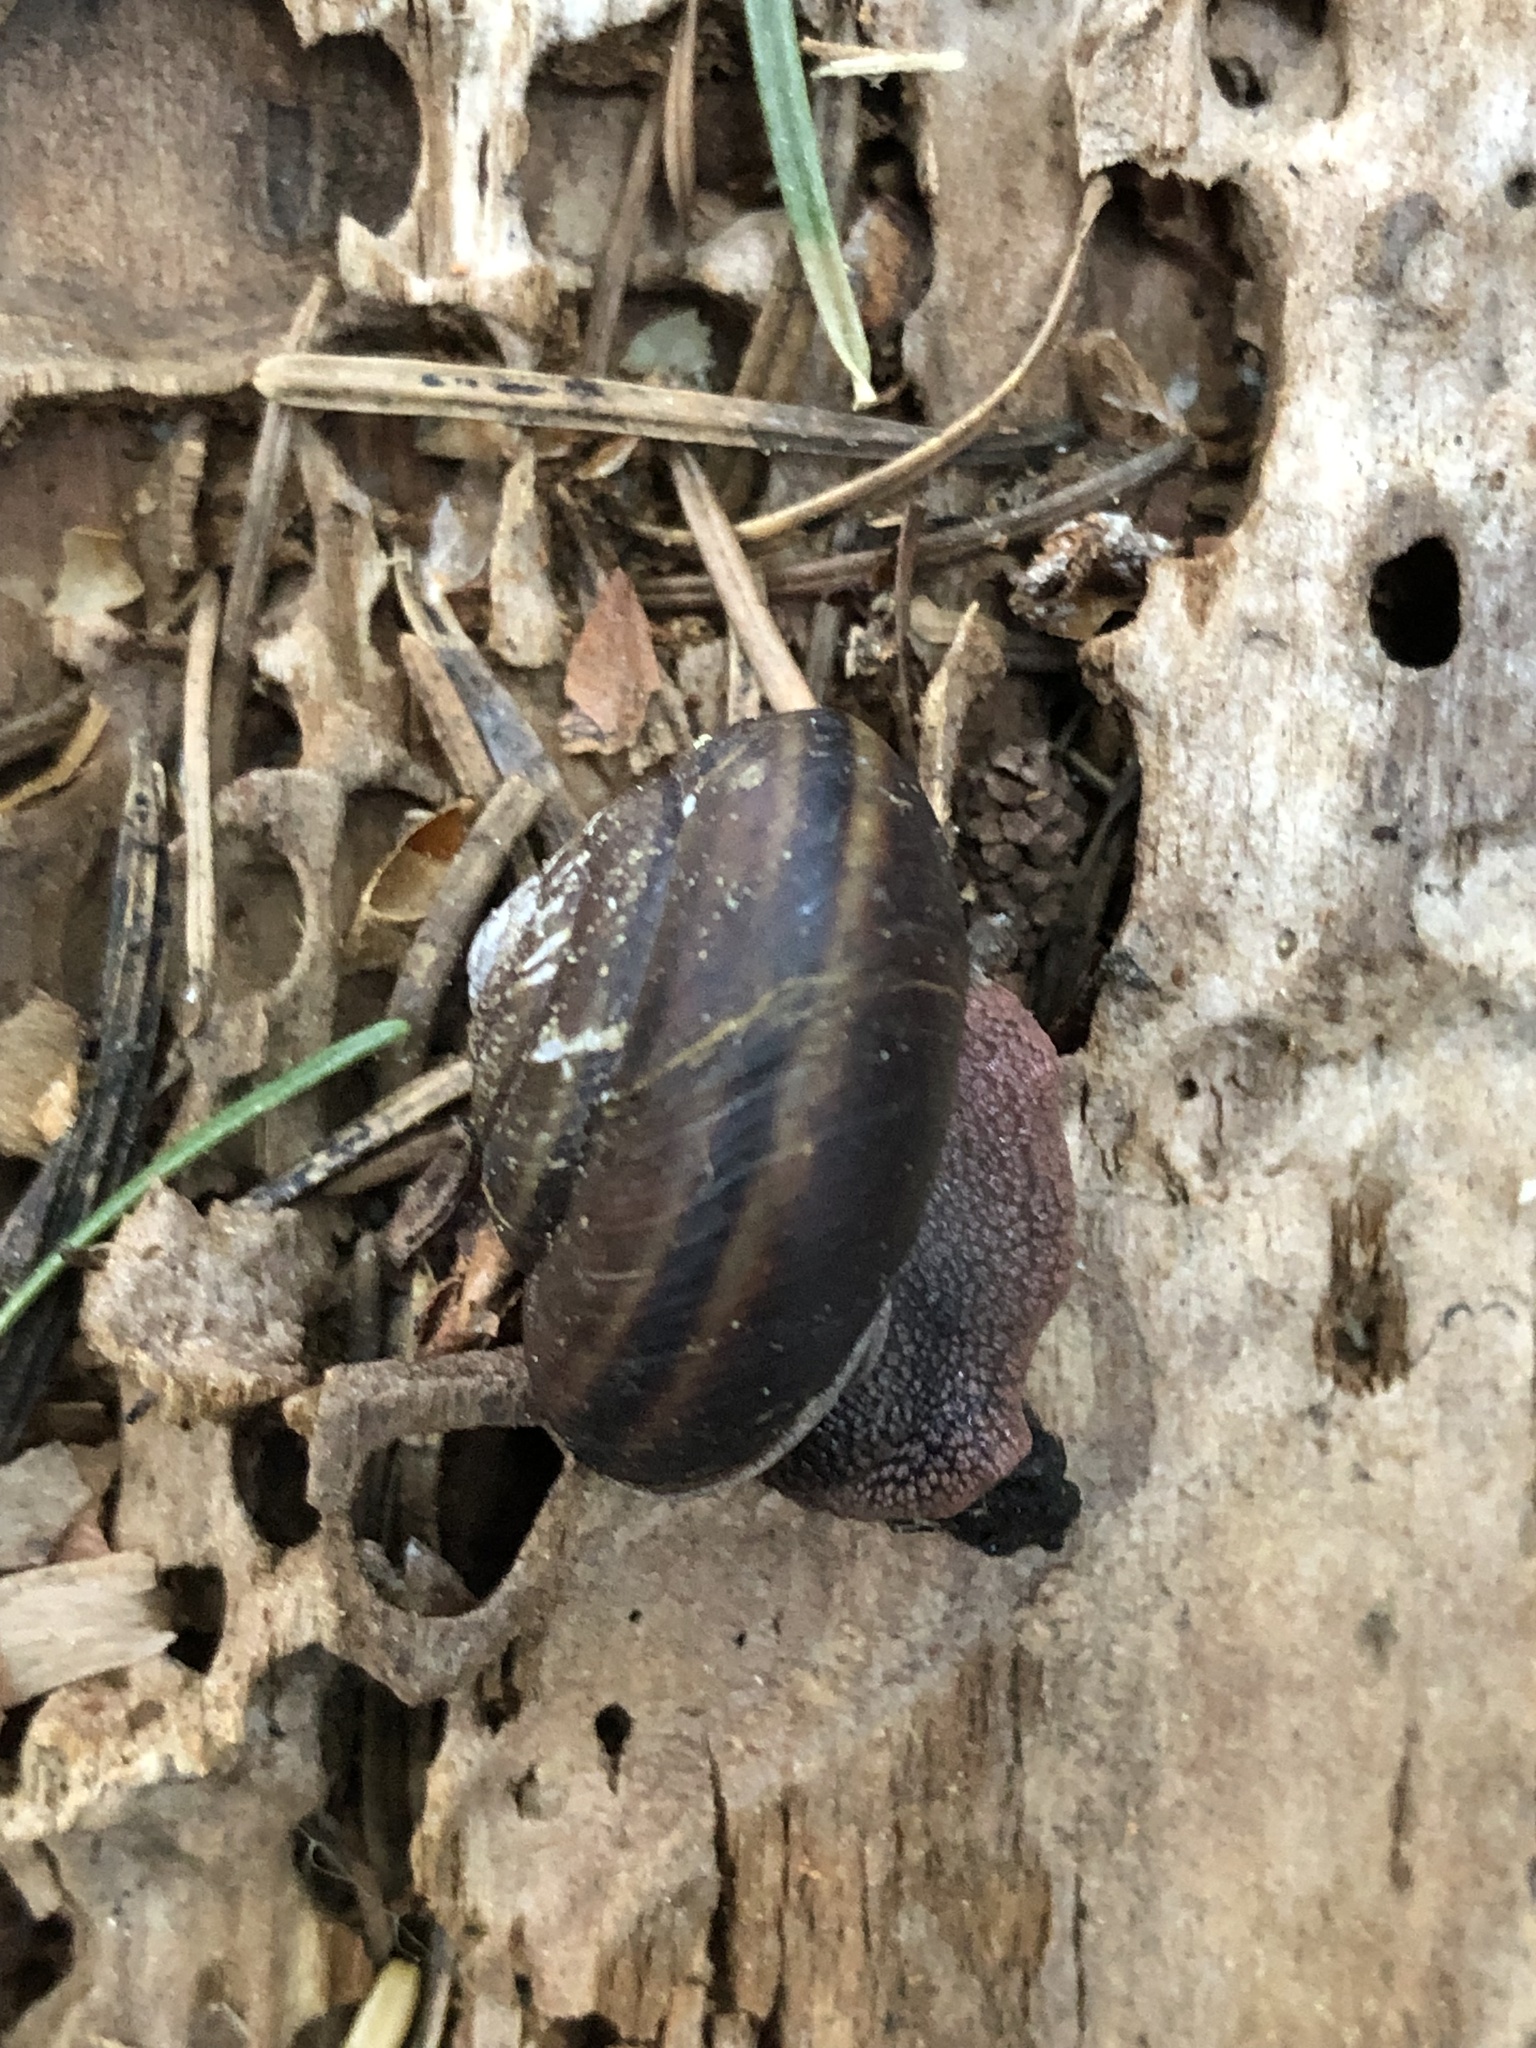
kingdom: Animalia
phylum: Mollusca
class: Gastropoda
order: Stylommatophora
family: Xanthonychidae
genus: Monadenia
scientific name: Monadenia chaceana
